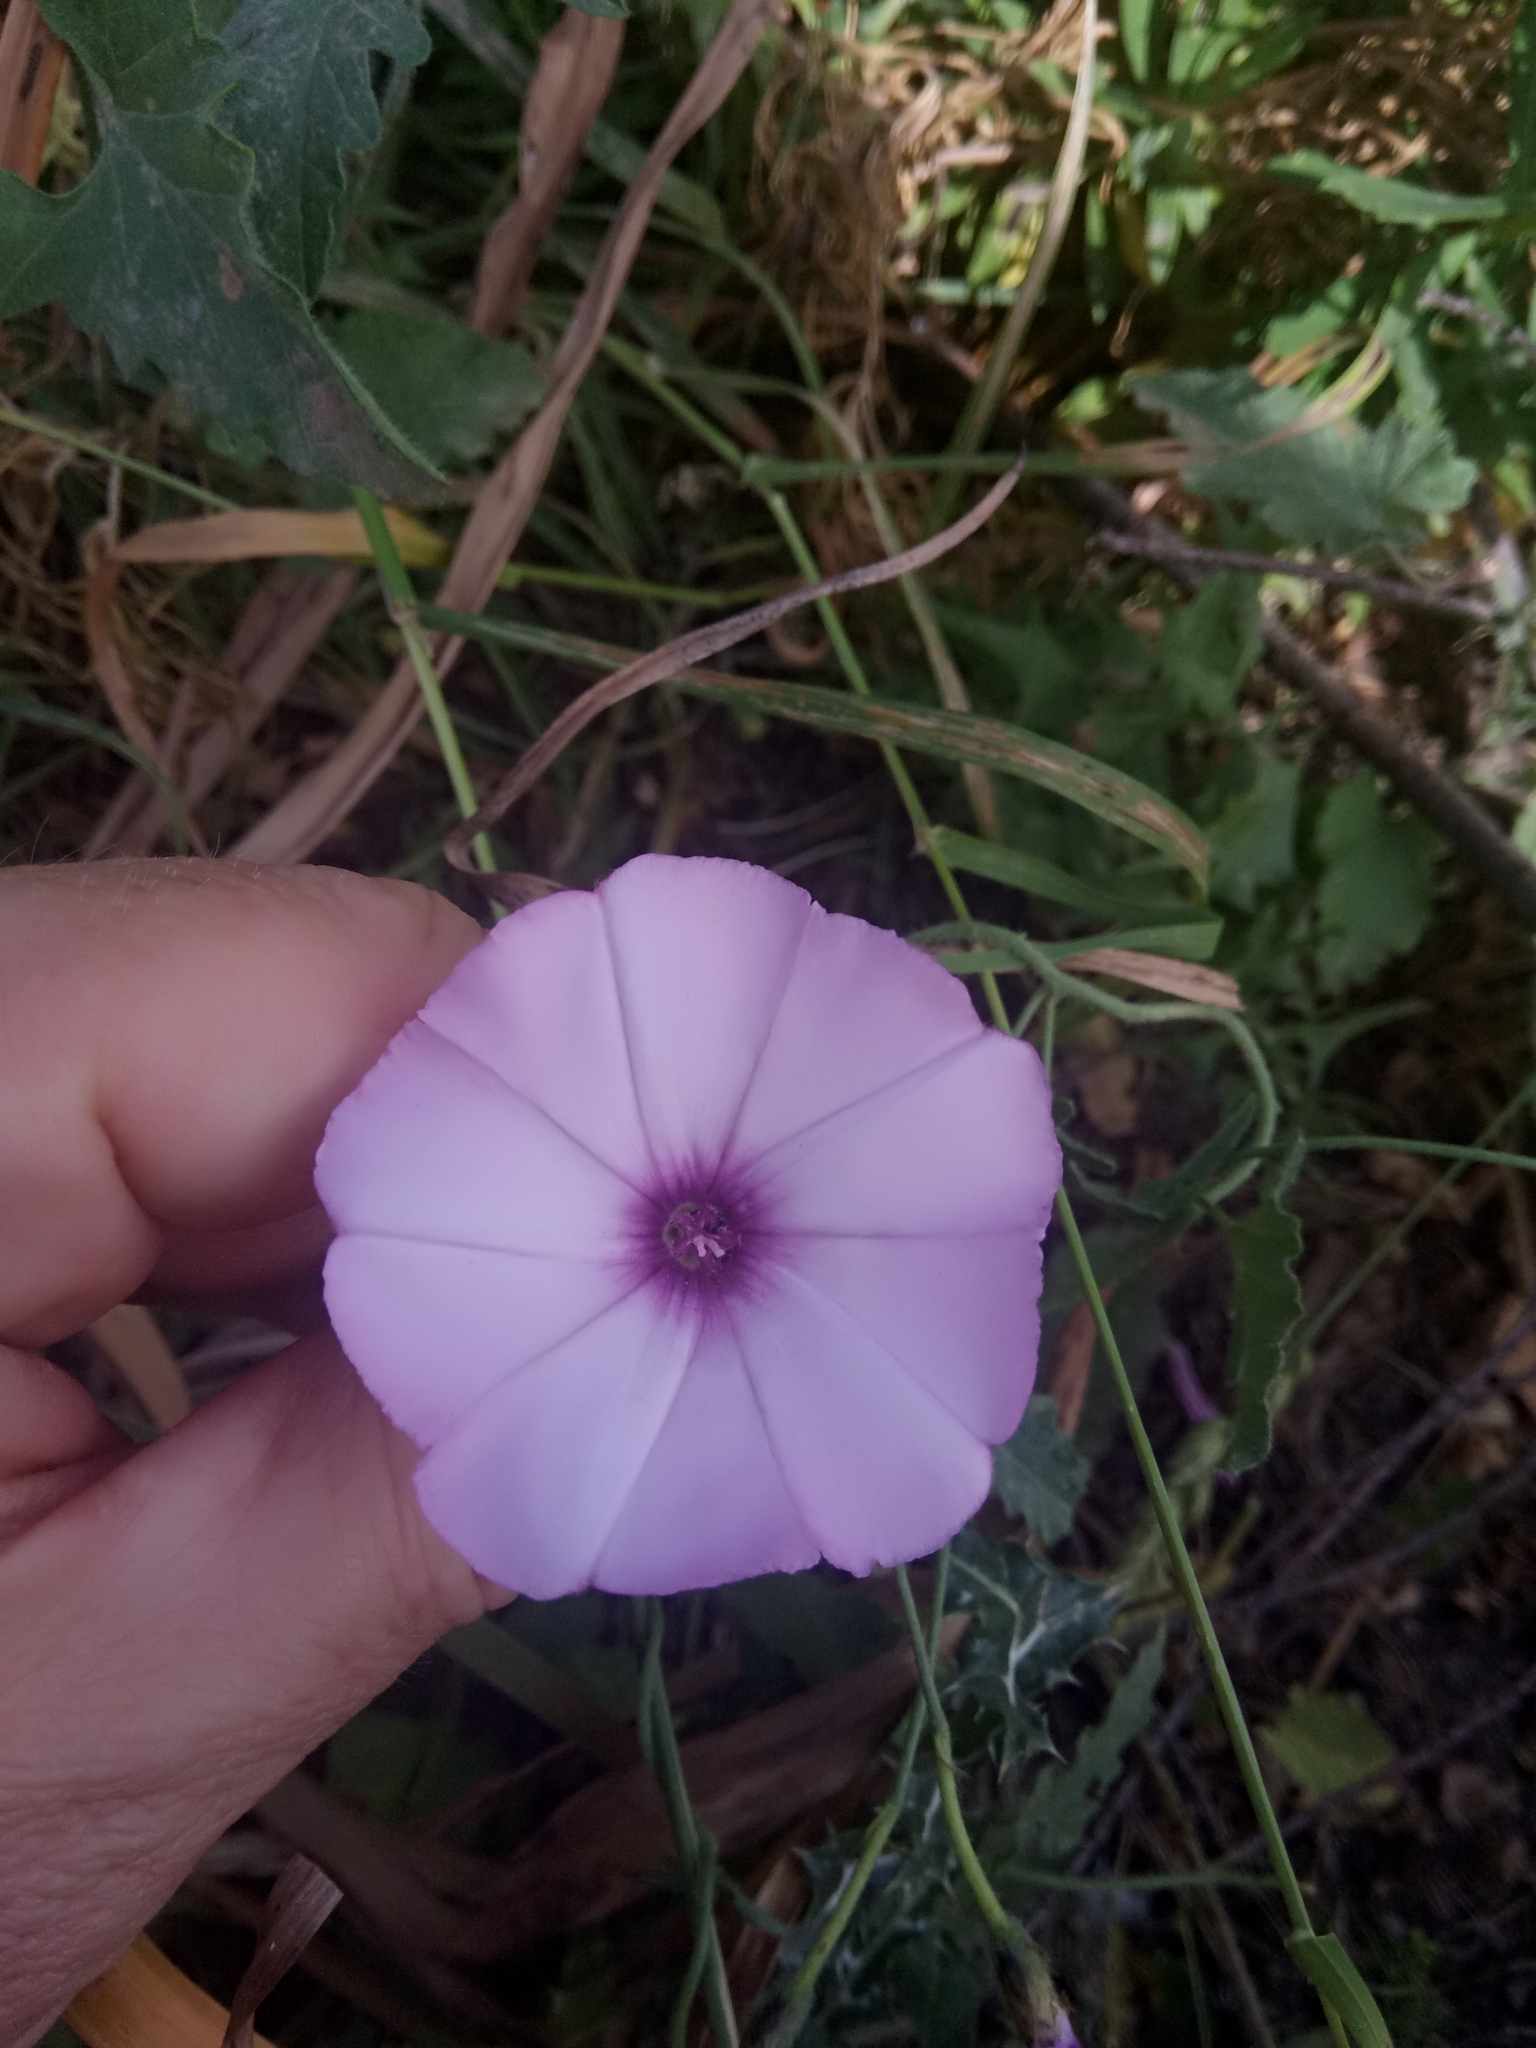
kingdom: Plantae
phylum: Tracheophyta
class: Magnoliopsida
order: Solanales
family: Convolvulaceae
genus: Convolvulus
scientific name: Convolvulus althaeoides
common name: Mallow bindweed
